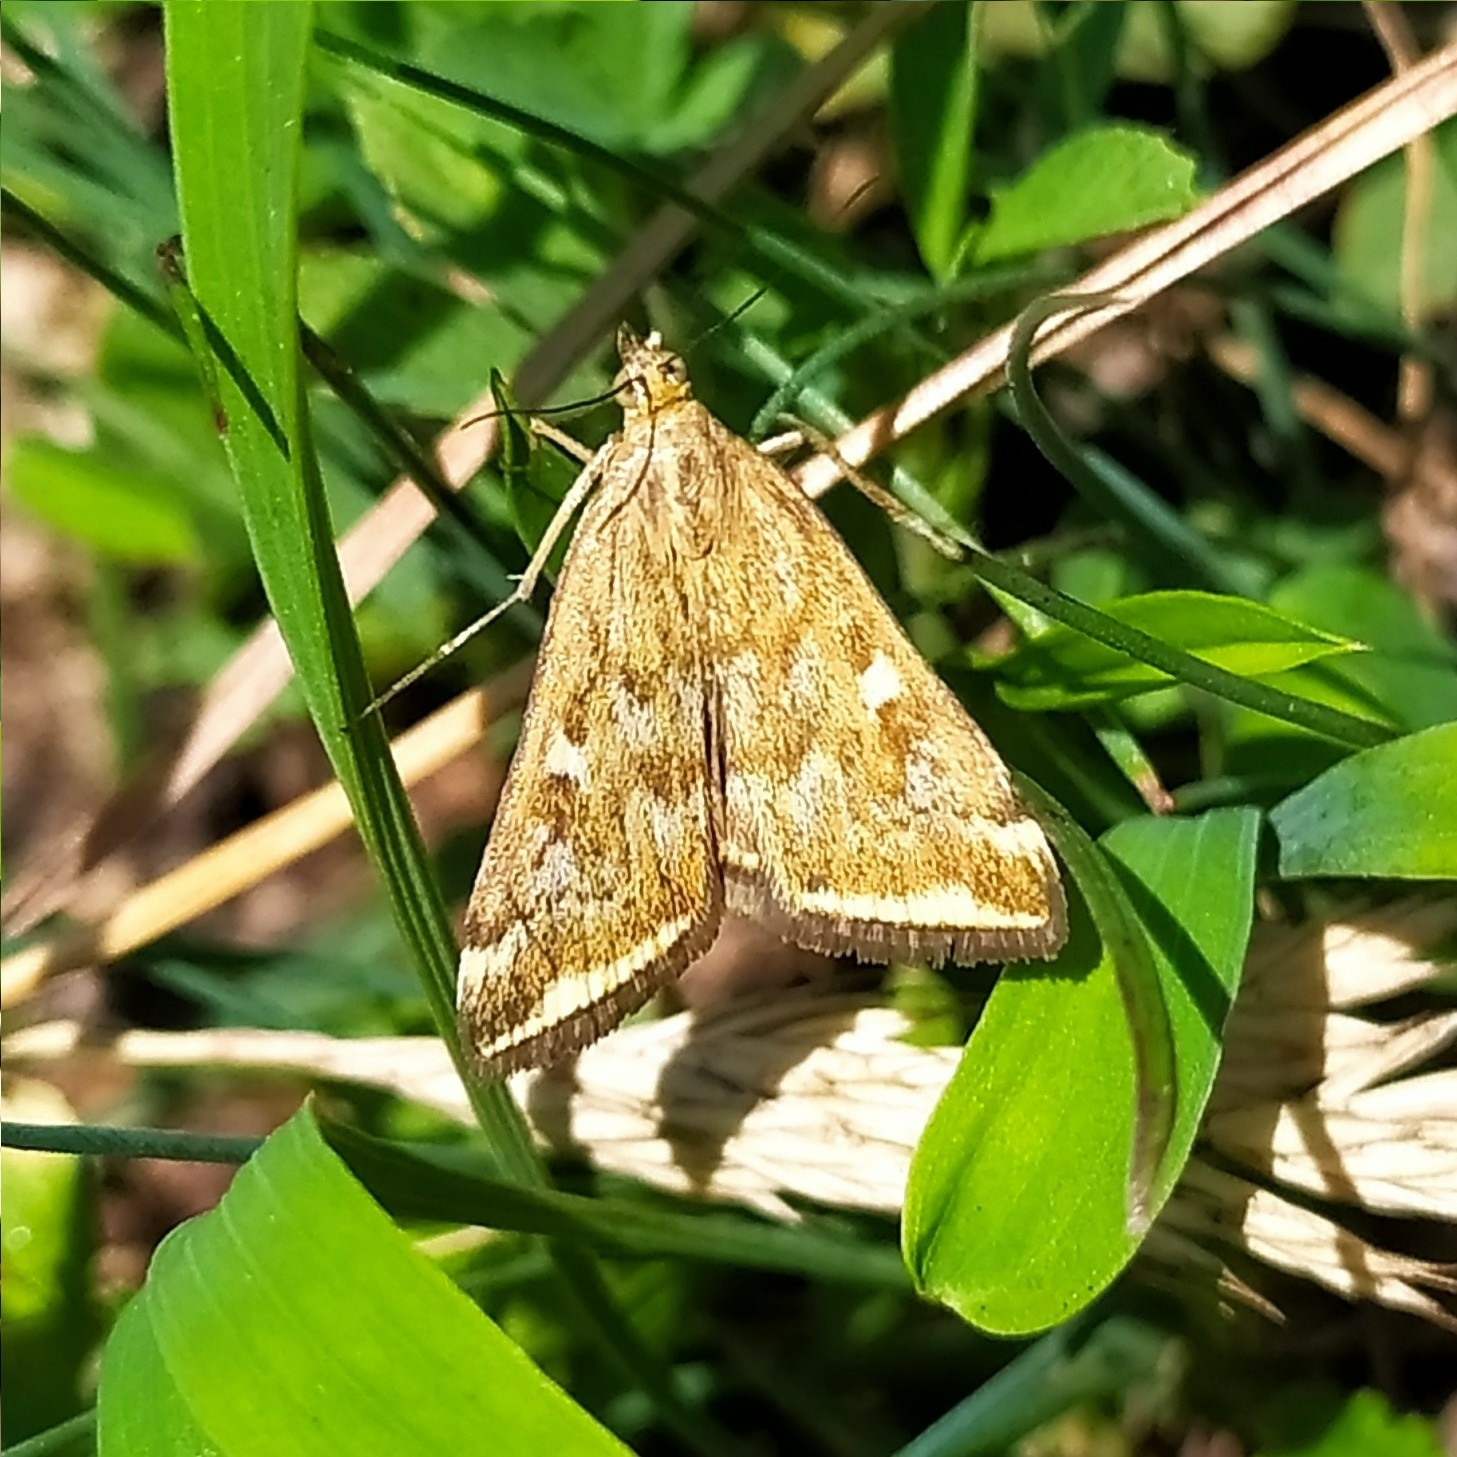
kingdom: Animalia
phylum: Arthropoda
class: Insecta
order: Lepidoptera
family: Crambidae
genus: Loxostege
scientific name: Loxostege sticticalis
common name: Crambid moth
